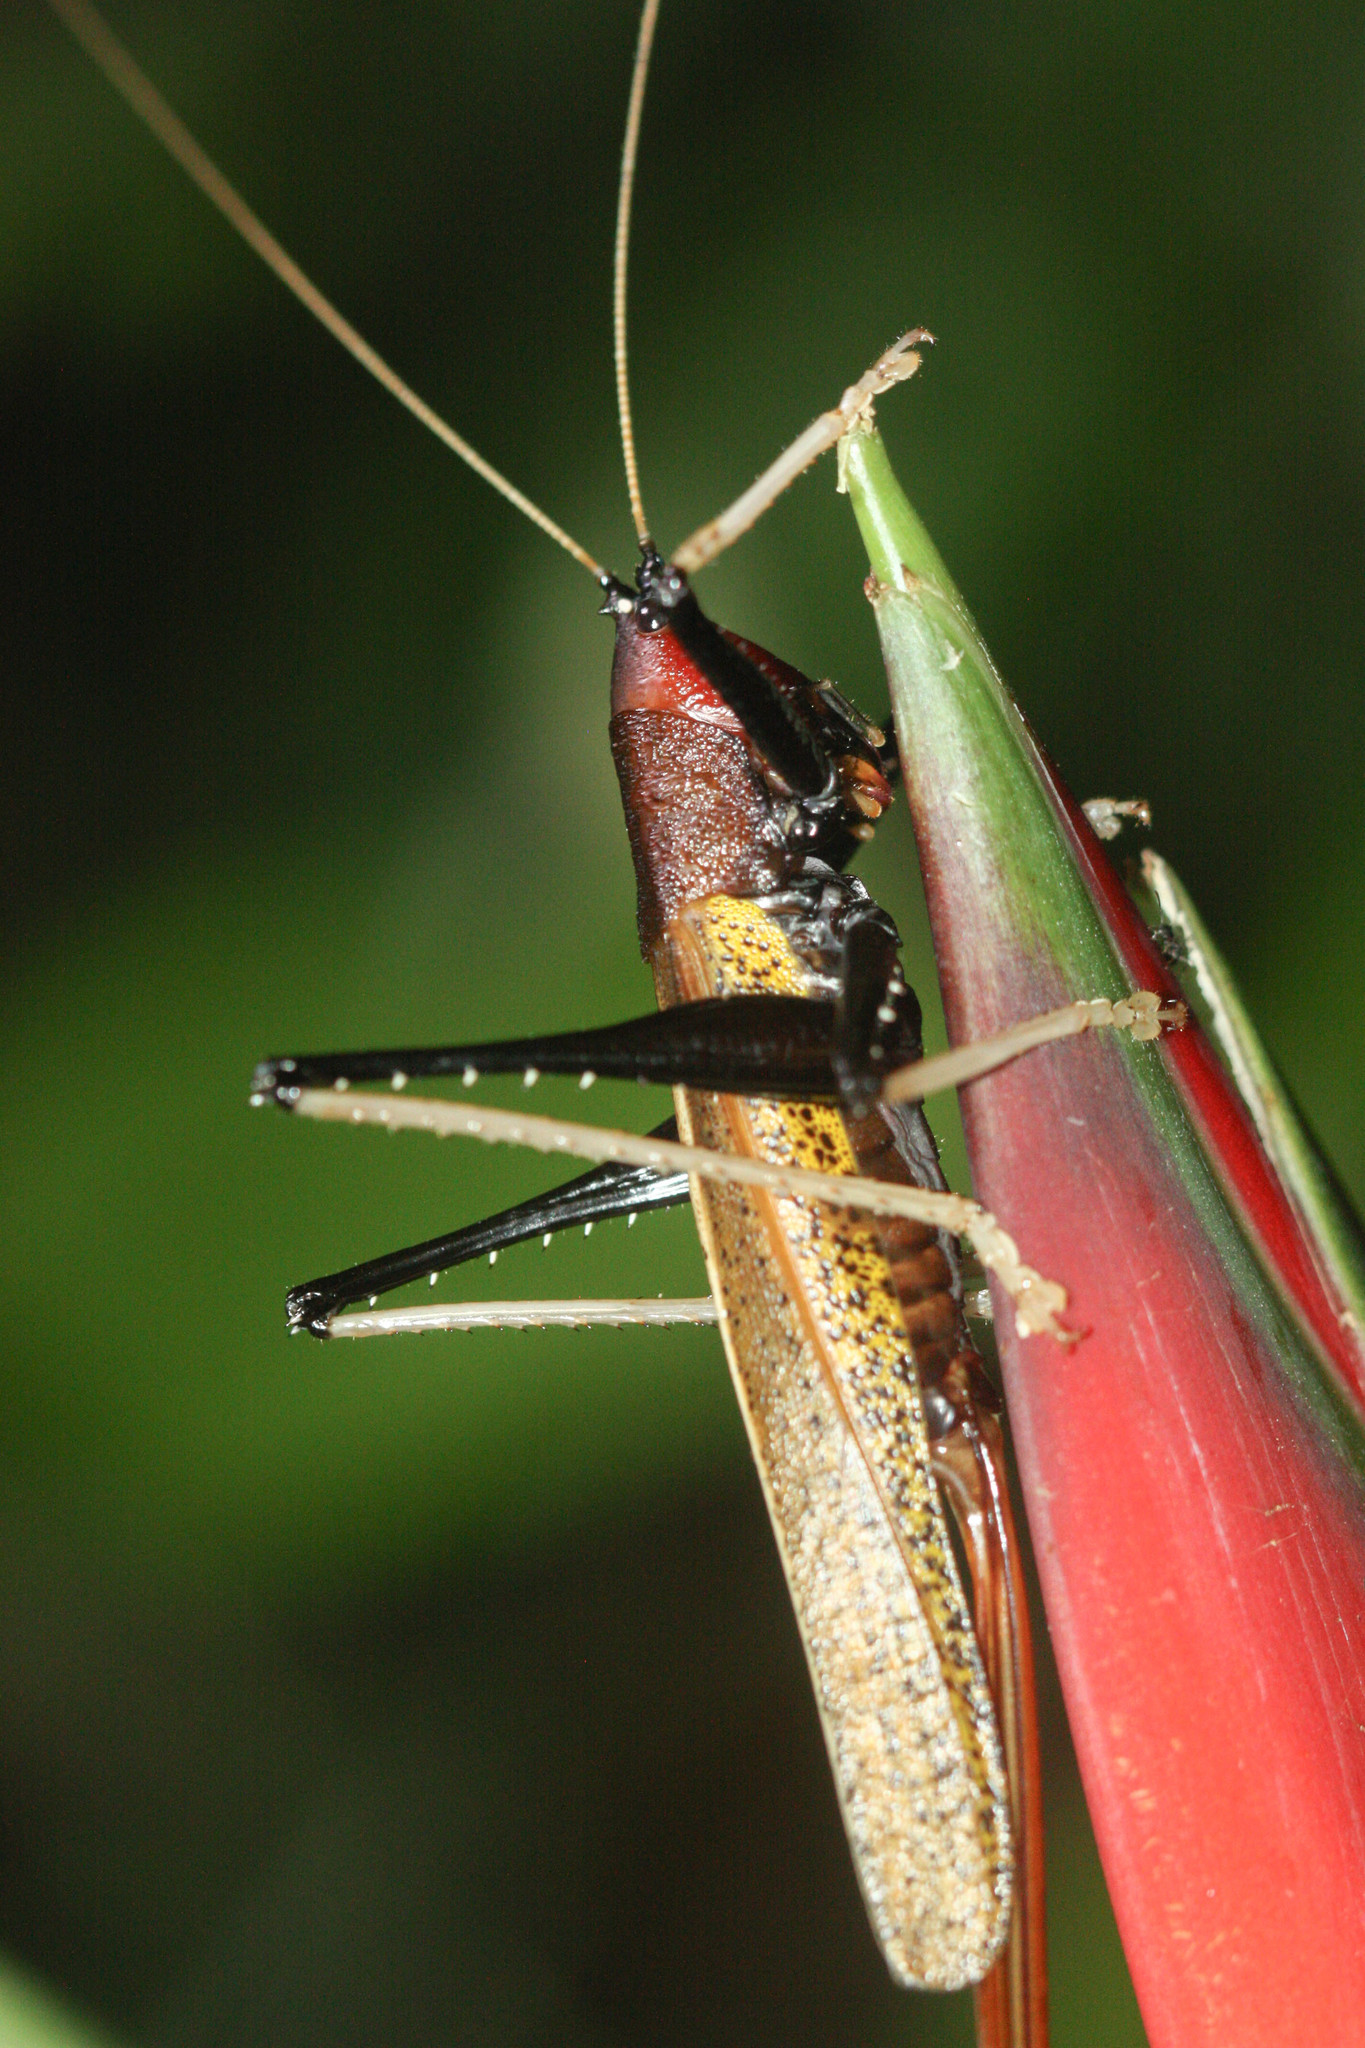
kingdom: Animalia
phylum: Arthropoda
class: Insecta
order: Orthoptera
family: Tettigoniidae
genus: Macroxiphus
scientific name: Macroxiphus sumatranus
